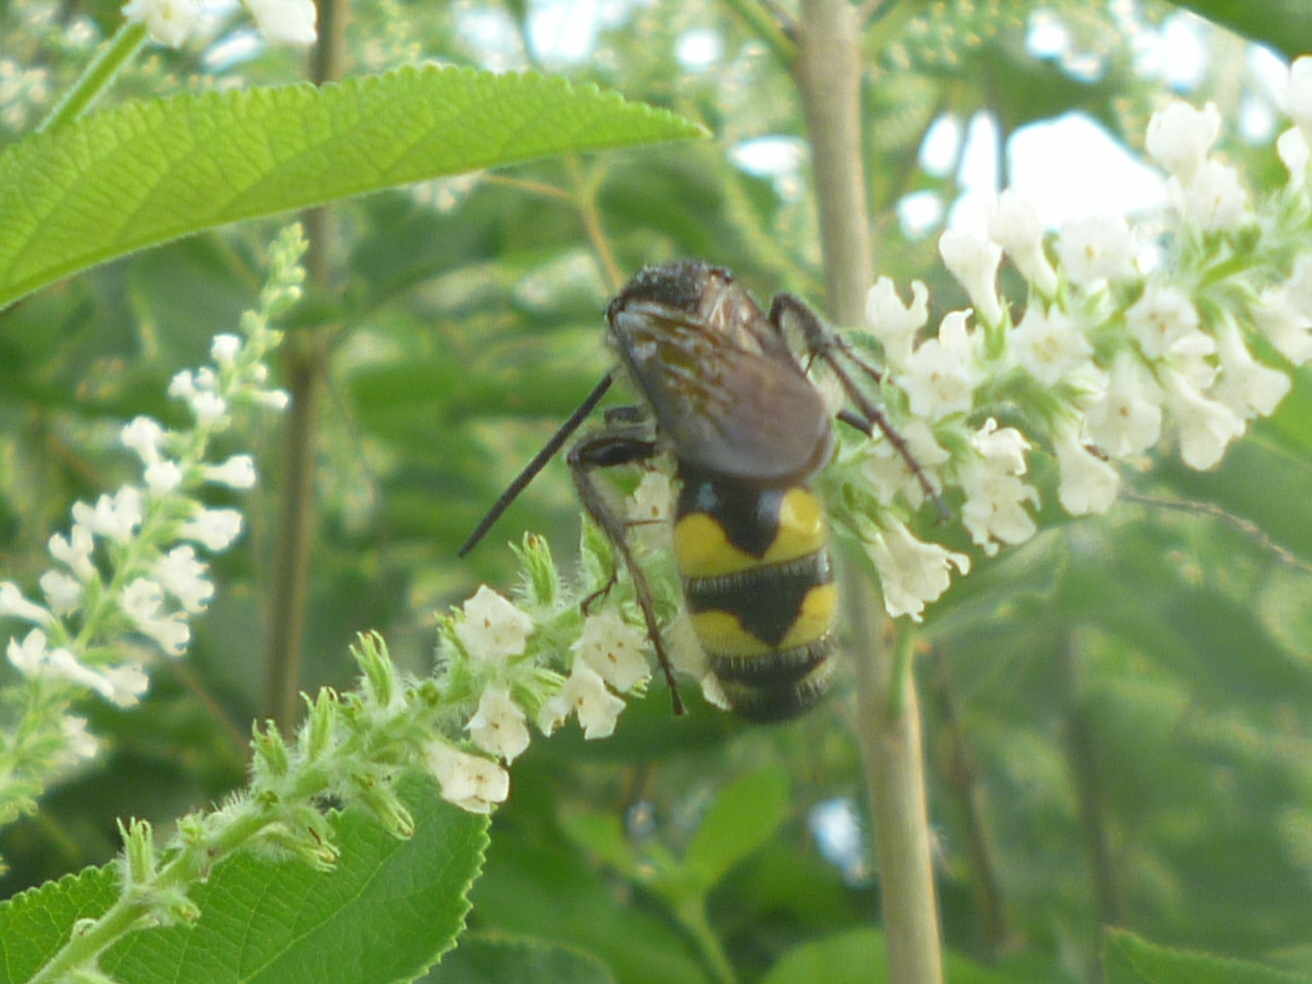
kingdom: Animalia
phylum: Arthropoda
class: Insecta
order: Hymenoptera
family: Scoliidae
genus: Pygodasis
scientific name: Pygodasis
